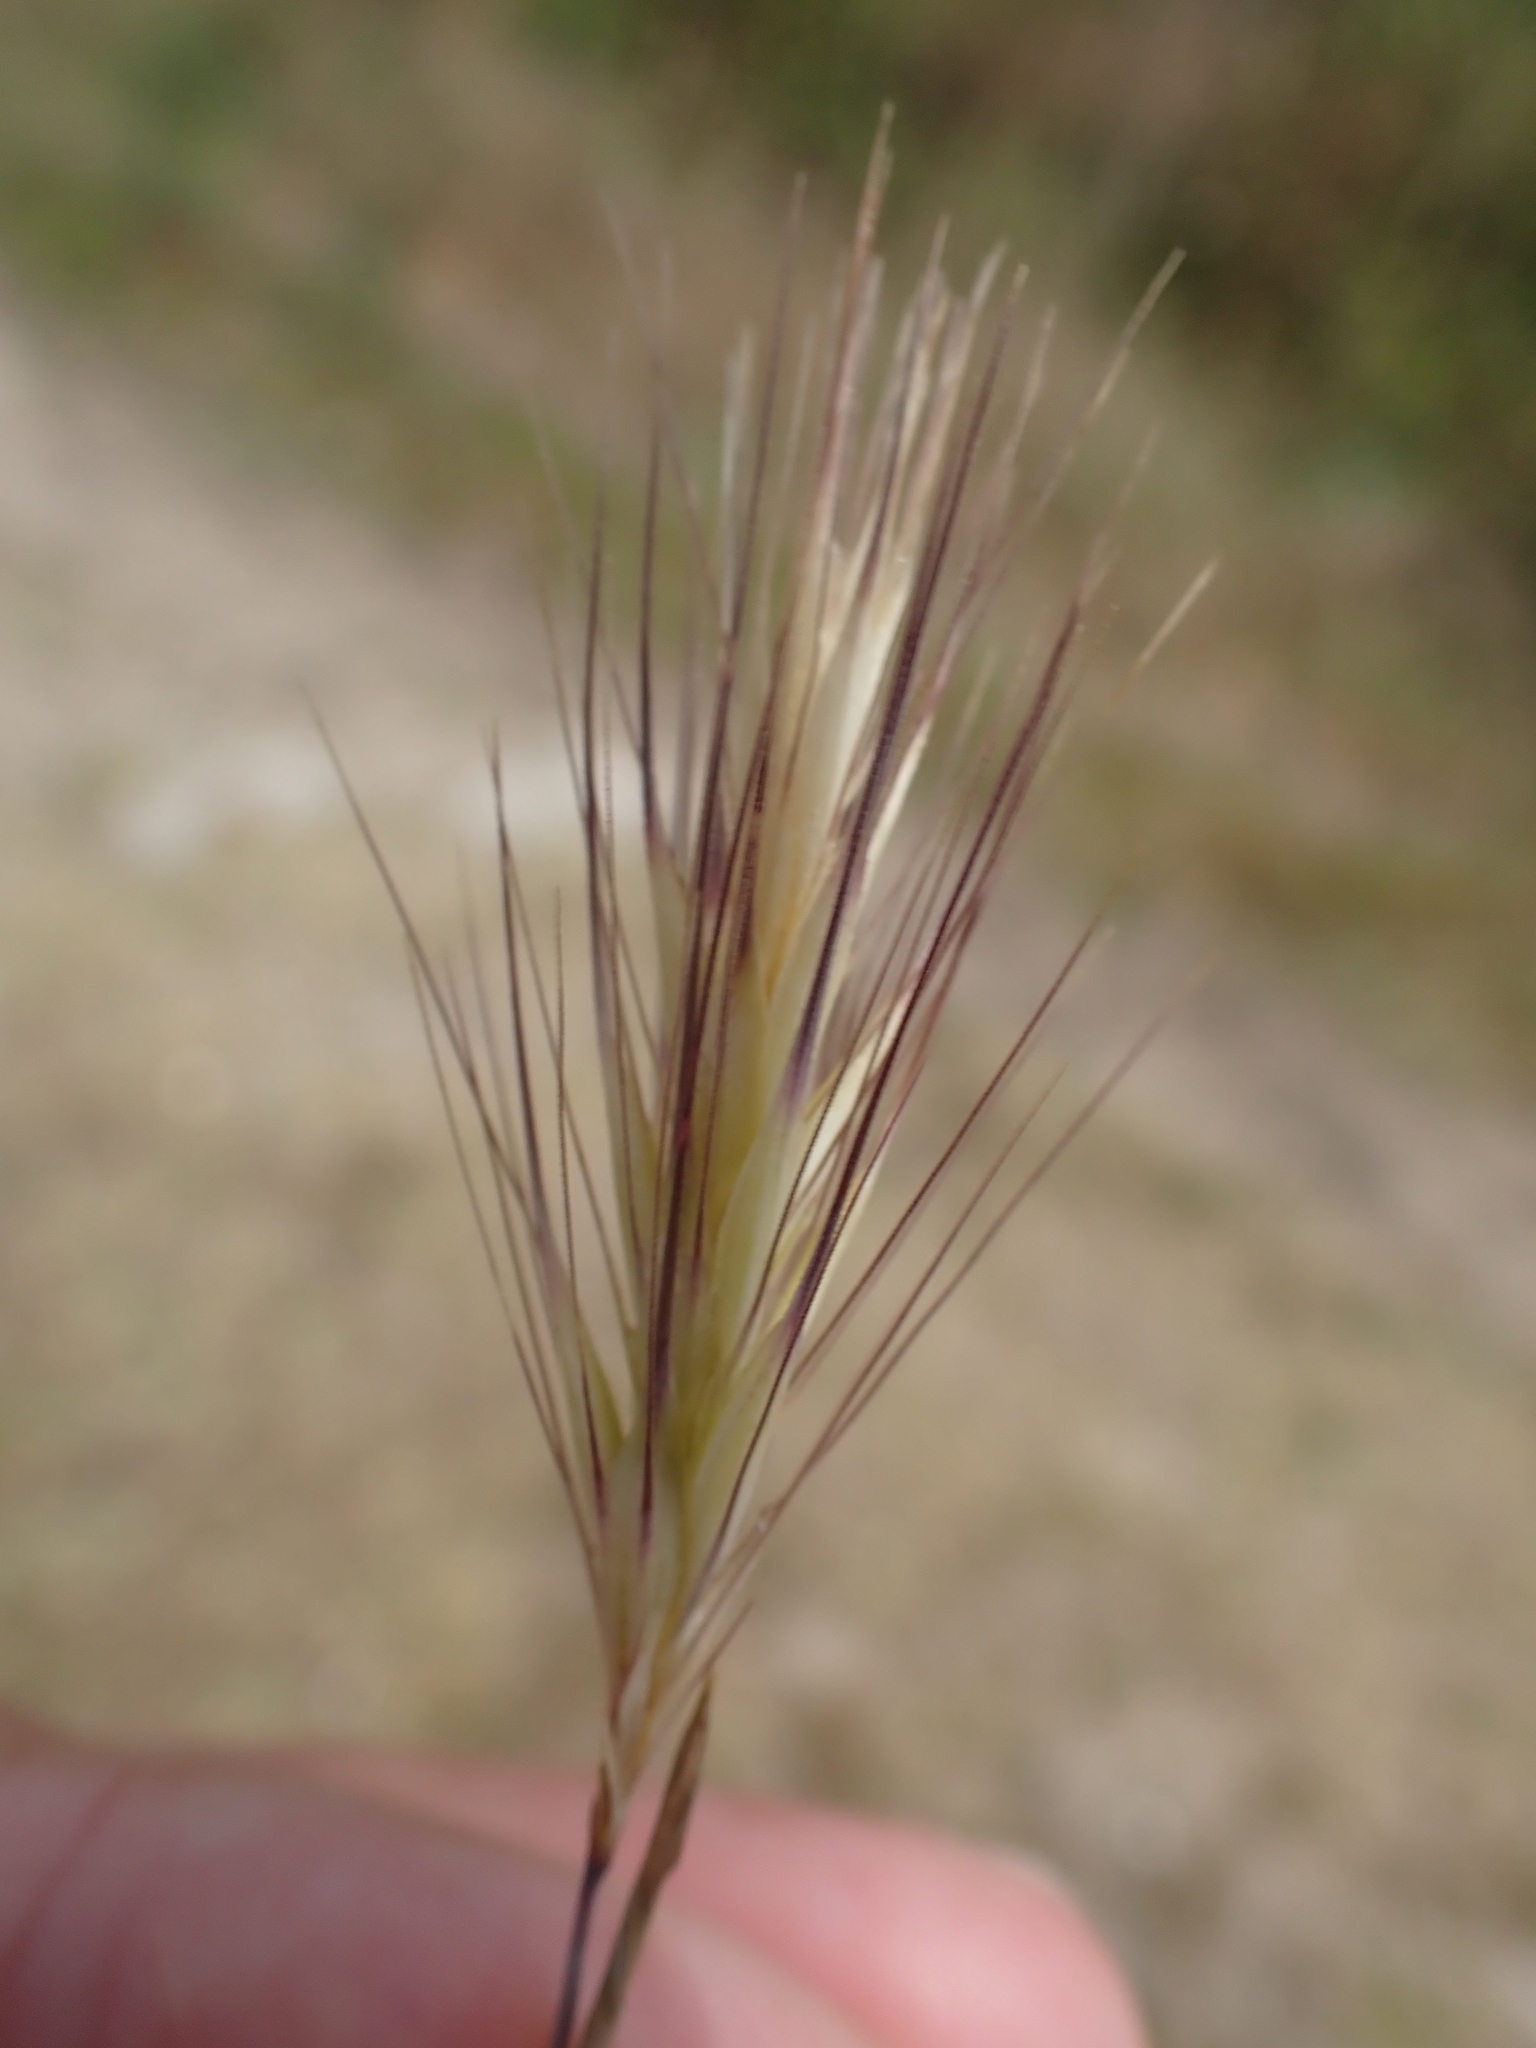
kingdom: Plantae
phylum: Tracheophyta
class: Liliopsida
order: Poales
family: Poaceae
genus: Hordeum
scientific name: Hordeum murinum
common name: Wall barley
